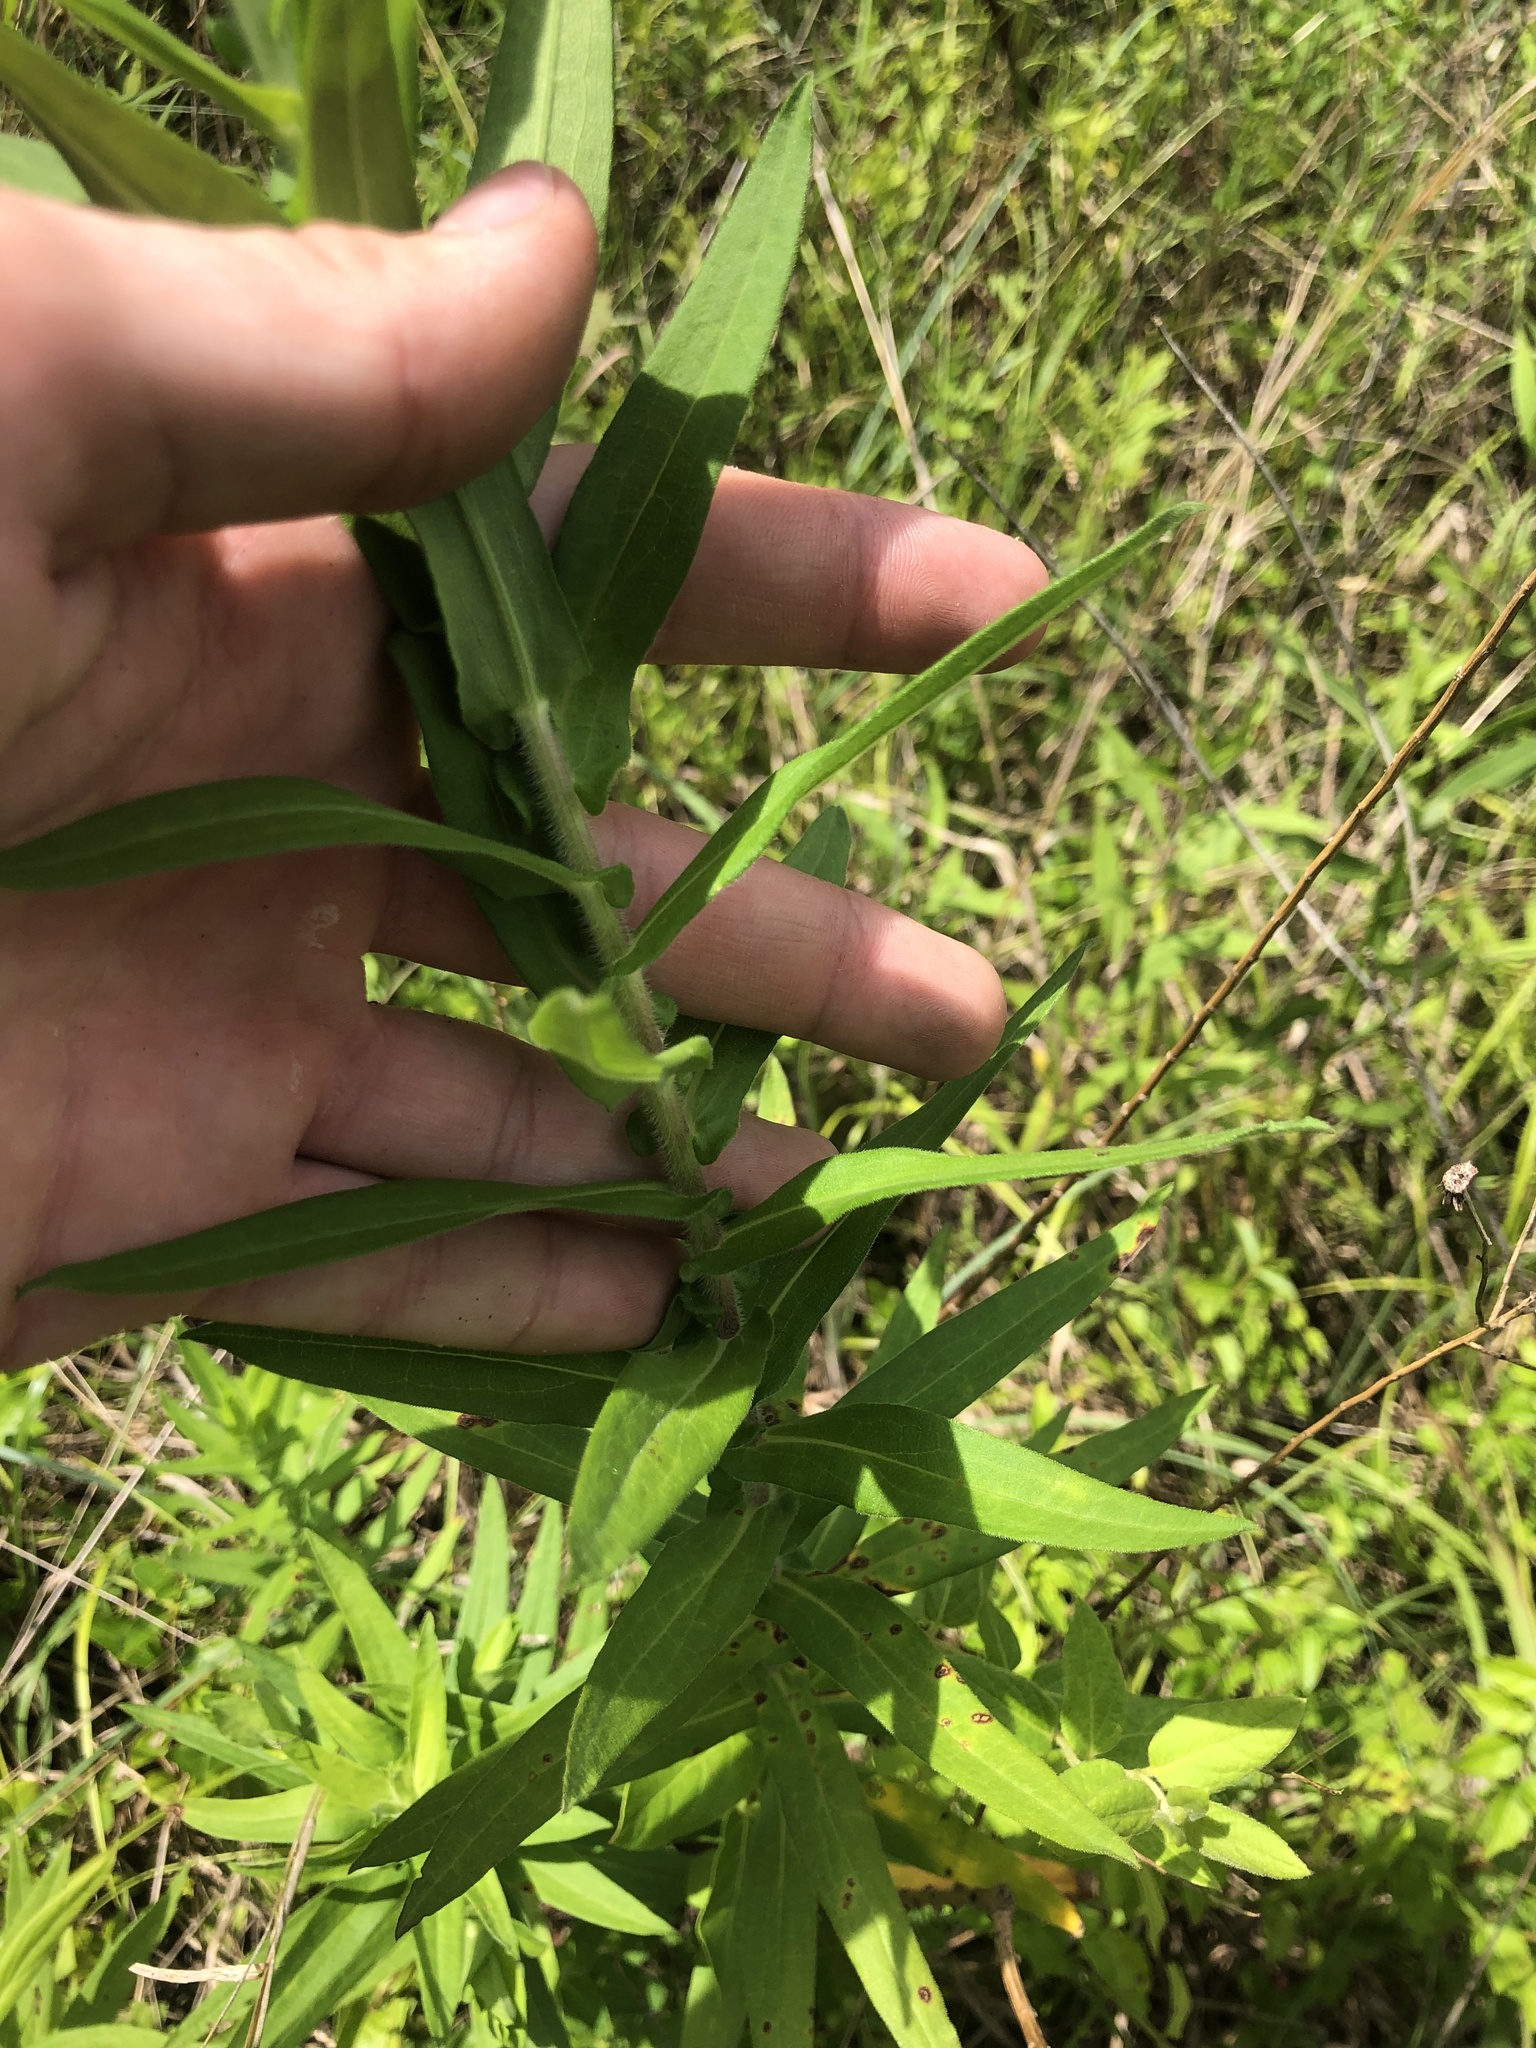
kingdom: Plantae
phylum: Tracheophyta
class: Magnoliopsida
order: Asterales
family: Asteraceae
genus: Symphyotrichum
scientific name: Symphyotrichum novae-angliae
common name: Michaelmas daisy
